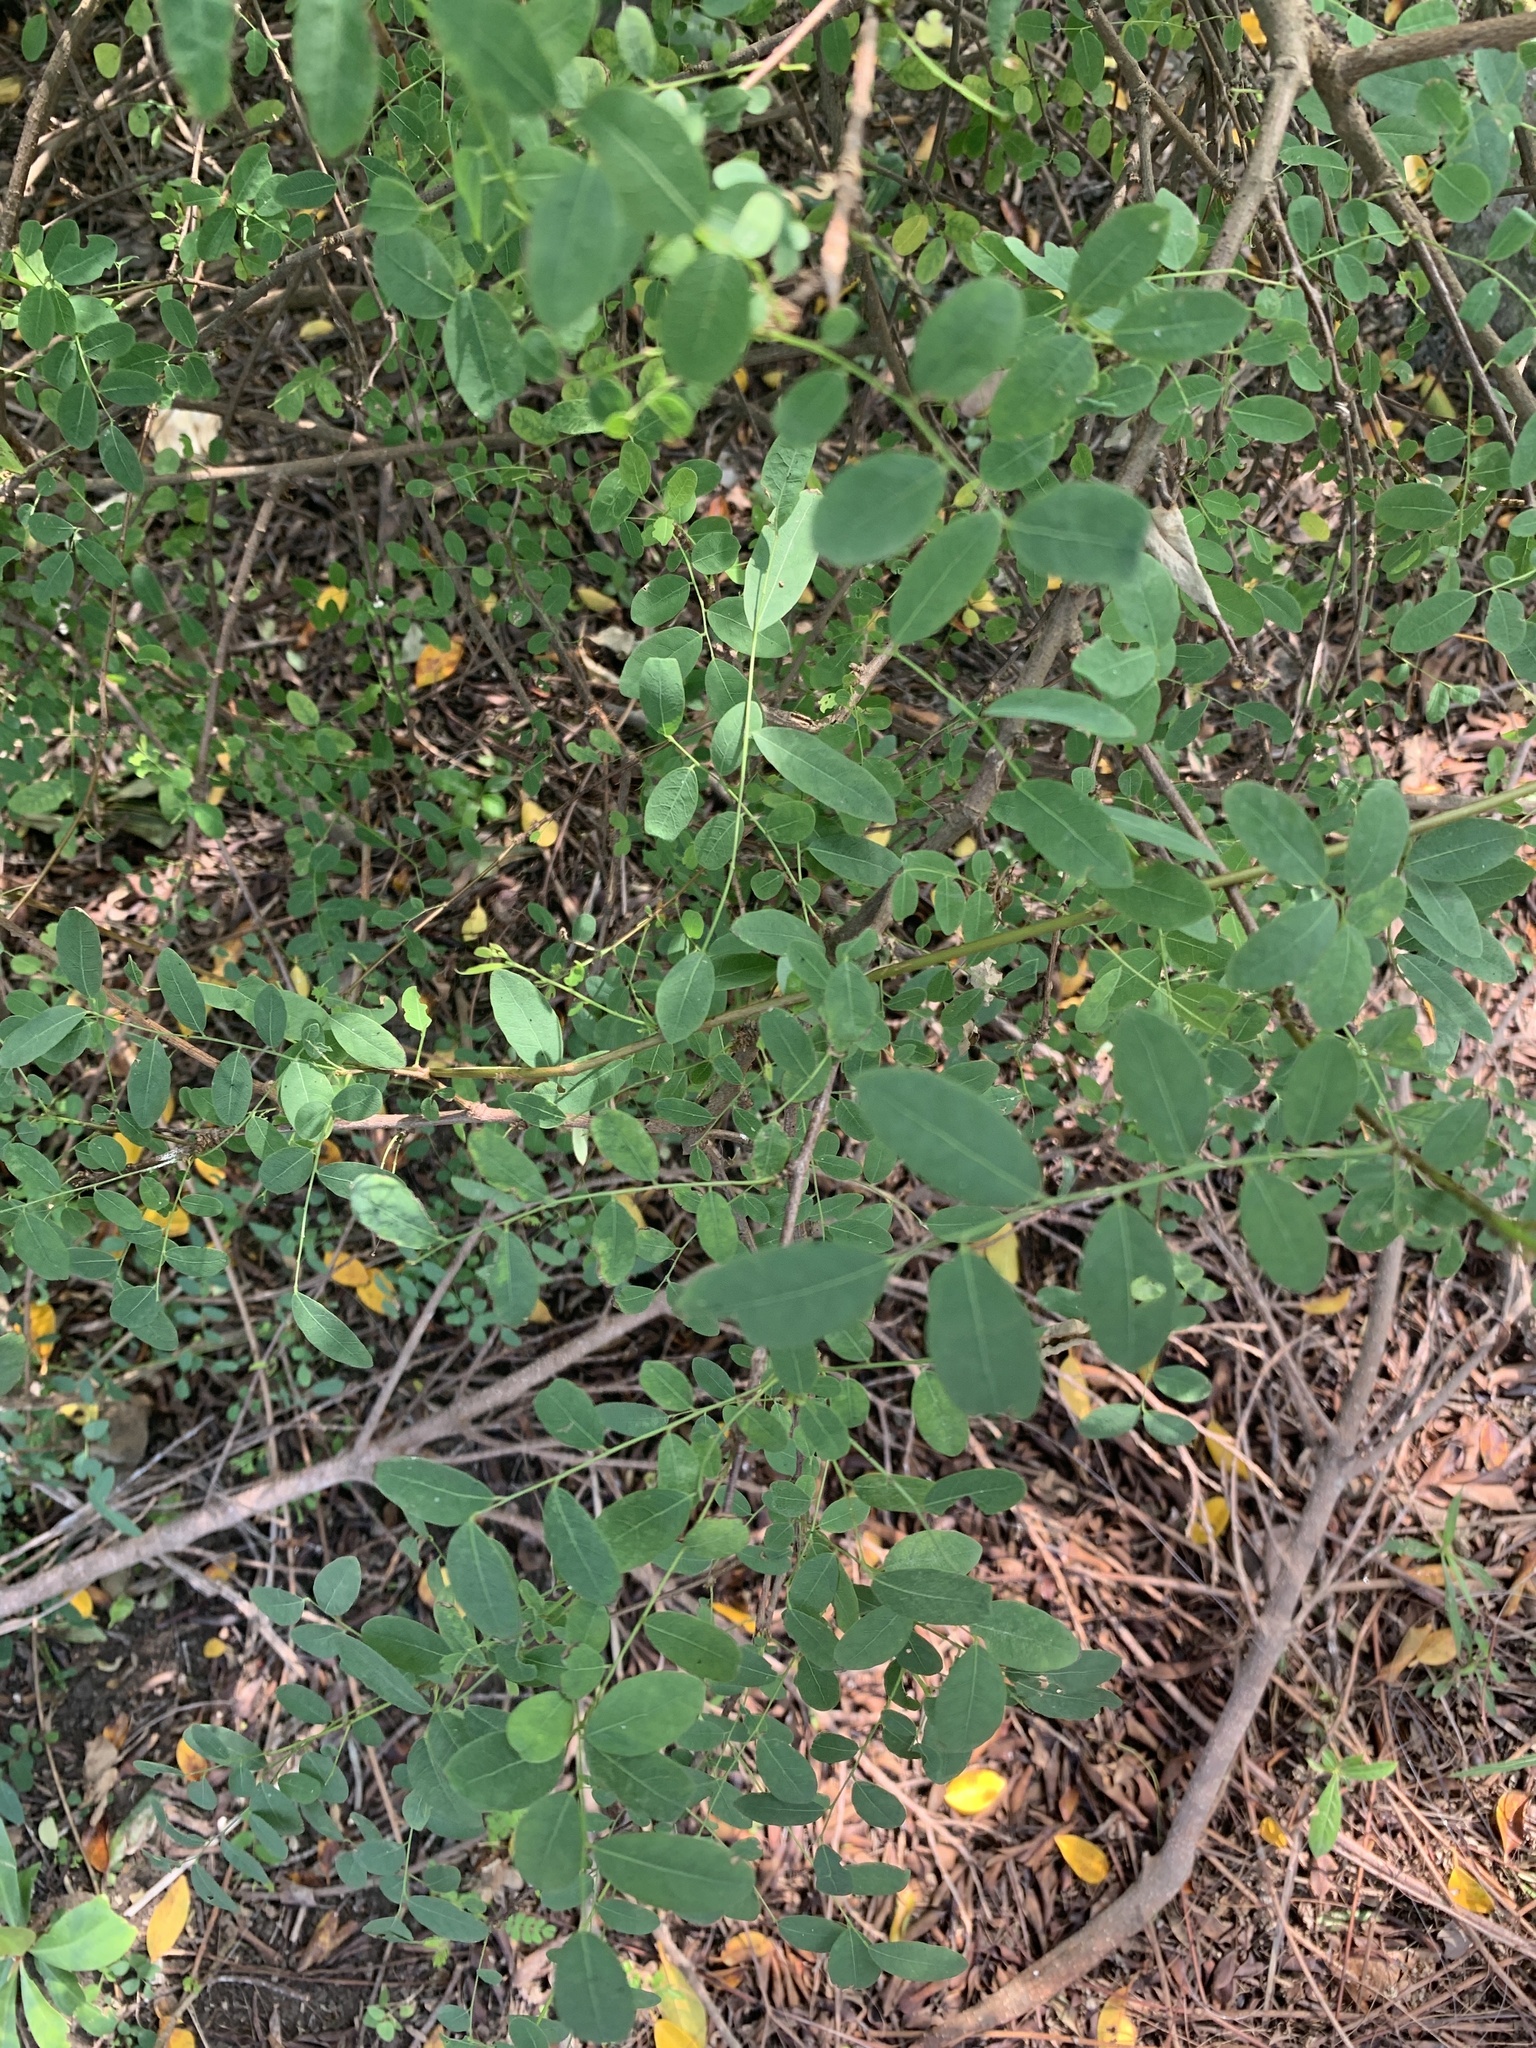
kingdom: Plantae
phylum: Tracheophyta
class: Magnoliopsida
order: Malpighiales
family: Phyllanthaceae
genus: Phyllanthus
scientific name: Phyllanthus reticulatus
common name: Potato bush
